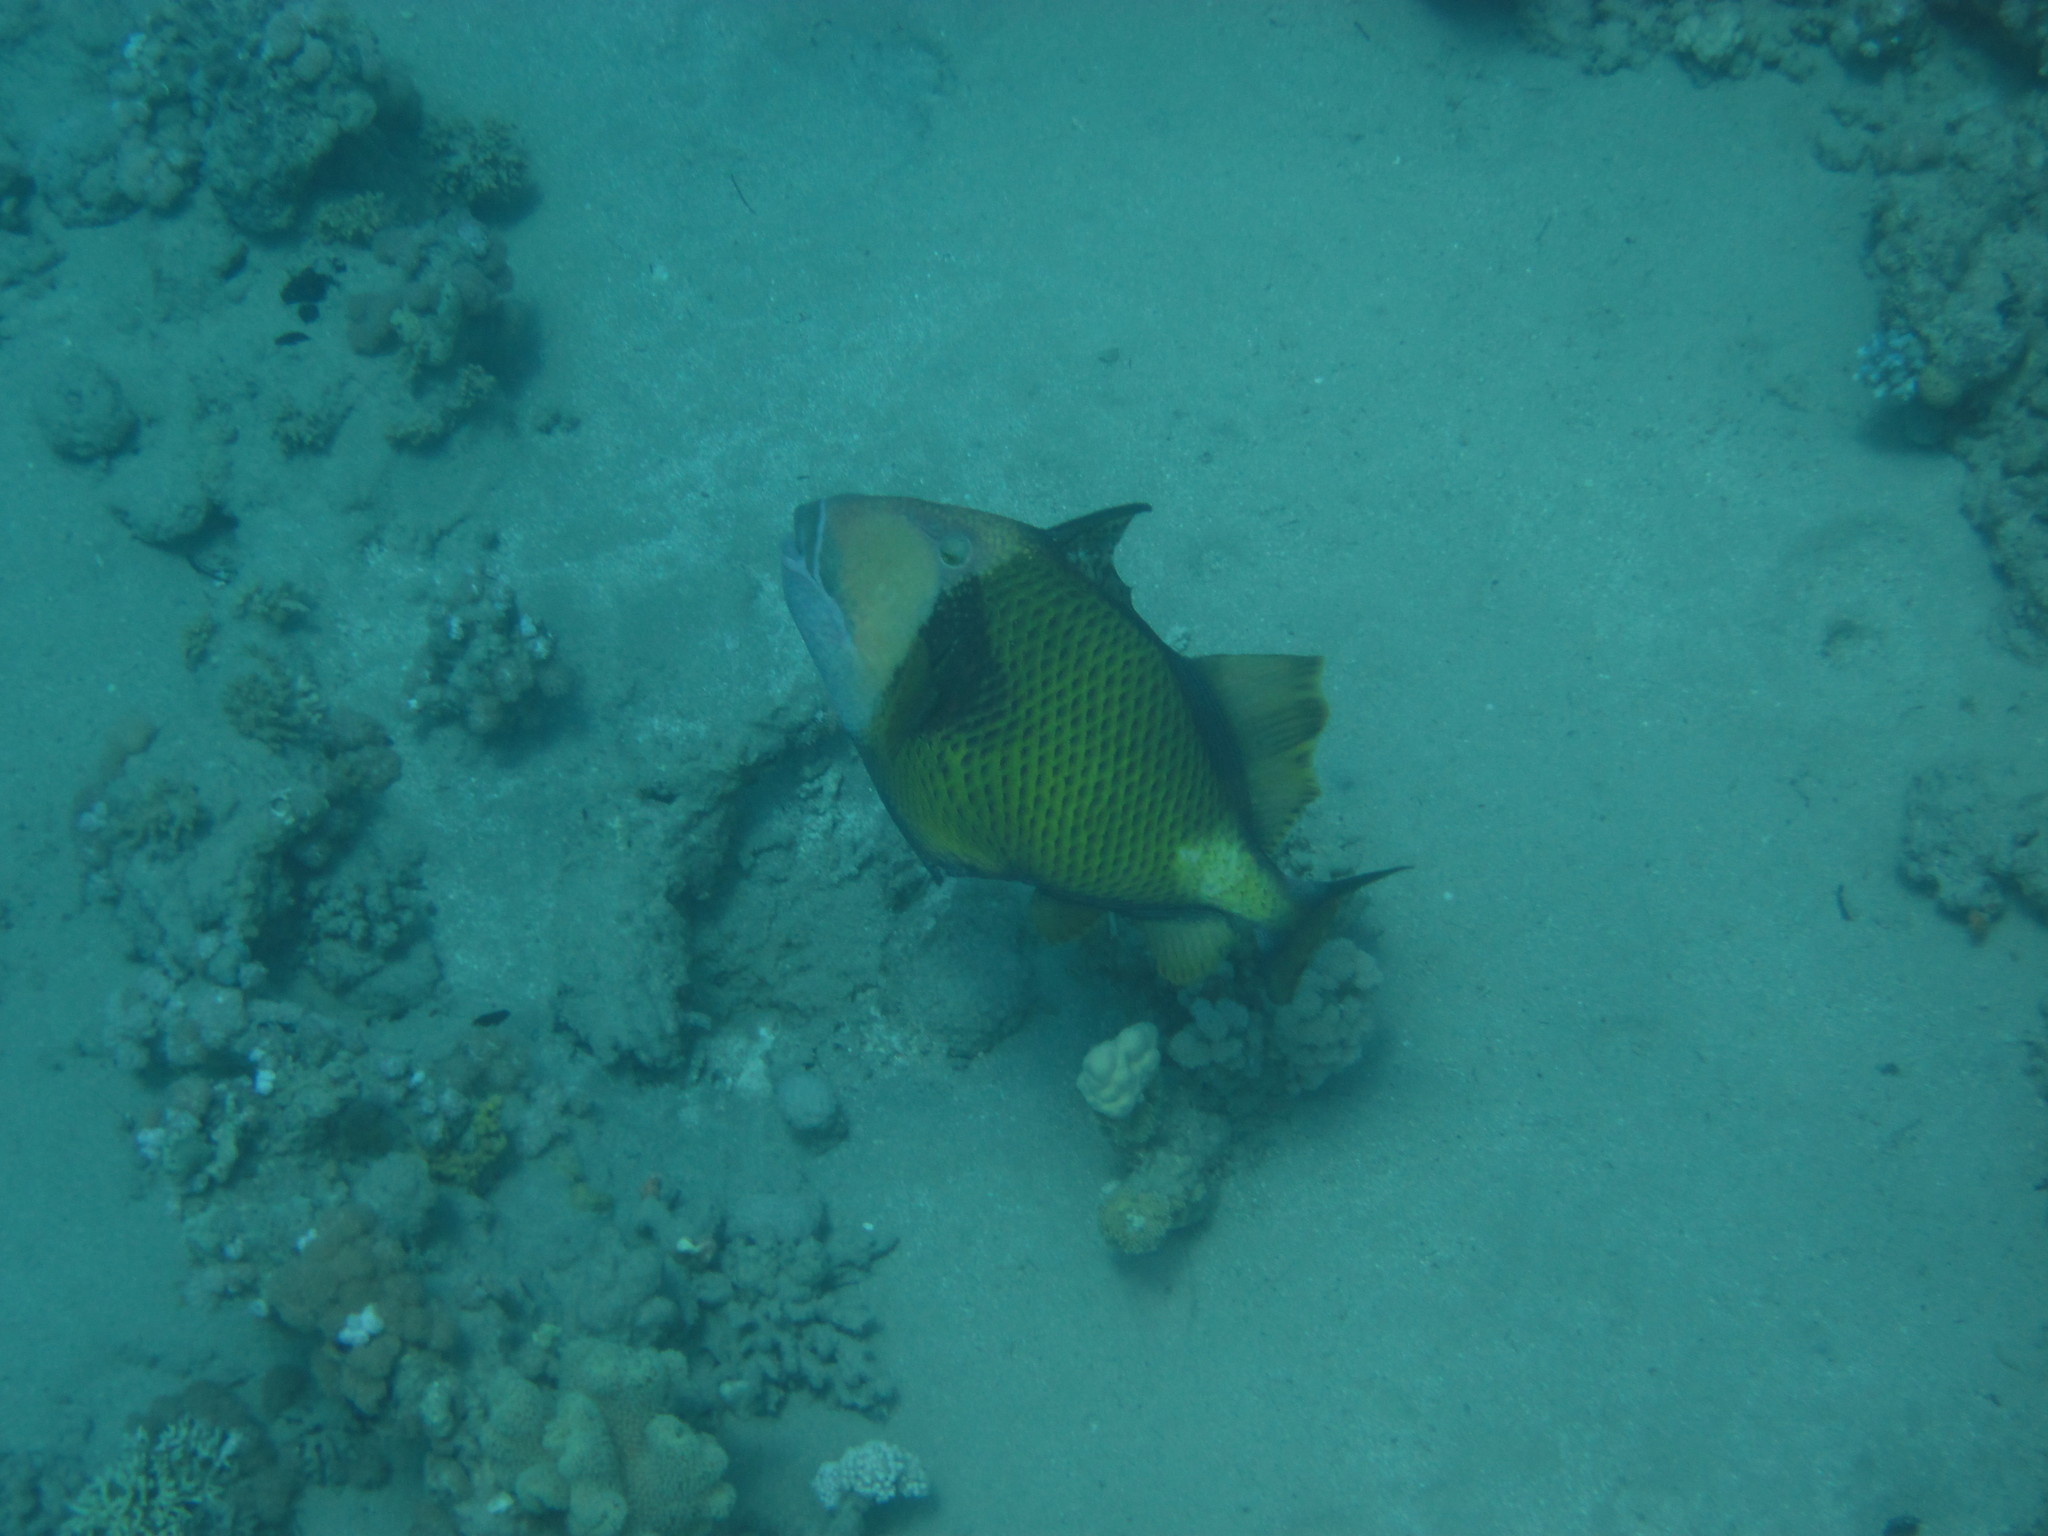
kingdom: Animalia
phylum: Chordata
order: Tetraodontiformes
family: Balistidae
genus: Balistoides
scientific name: Balistoides viridescens
